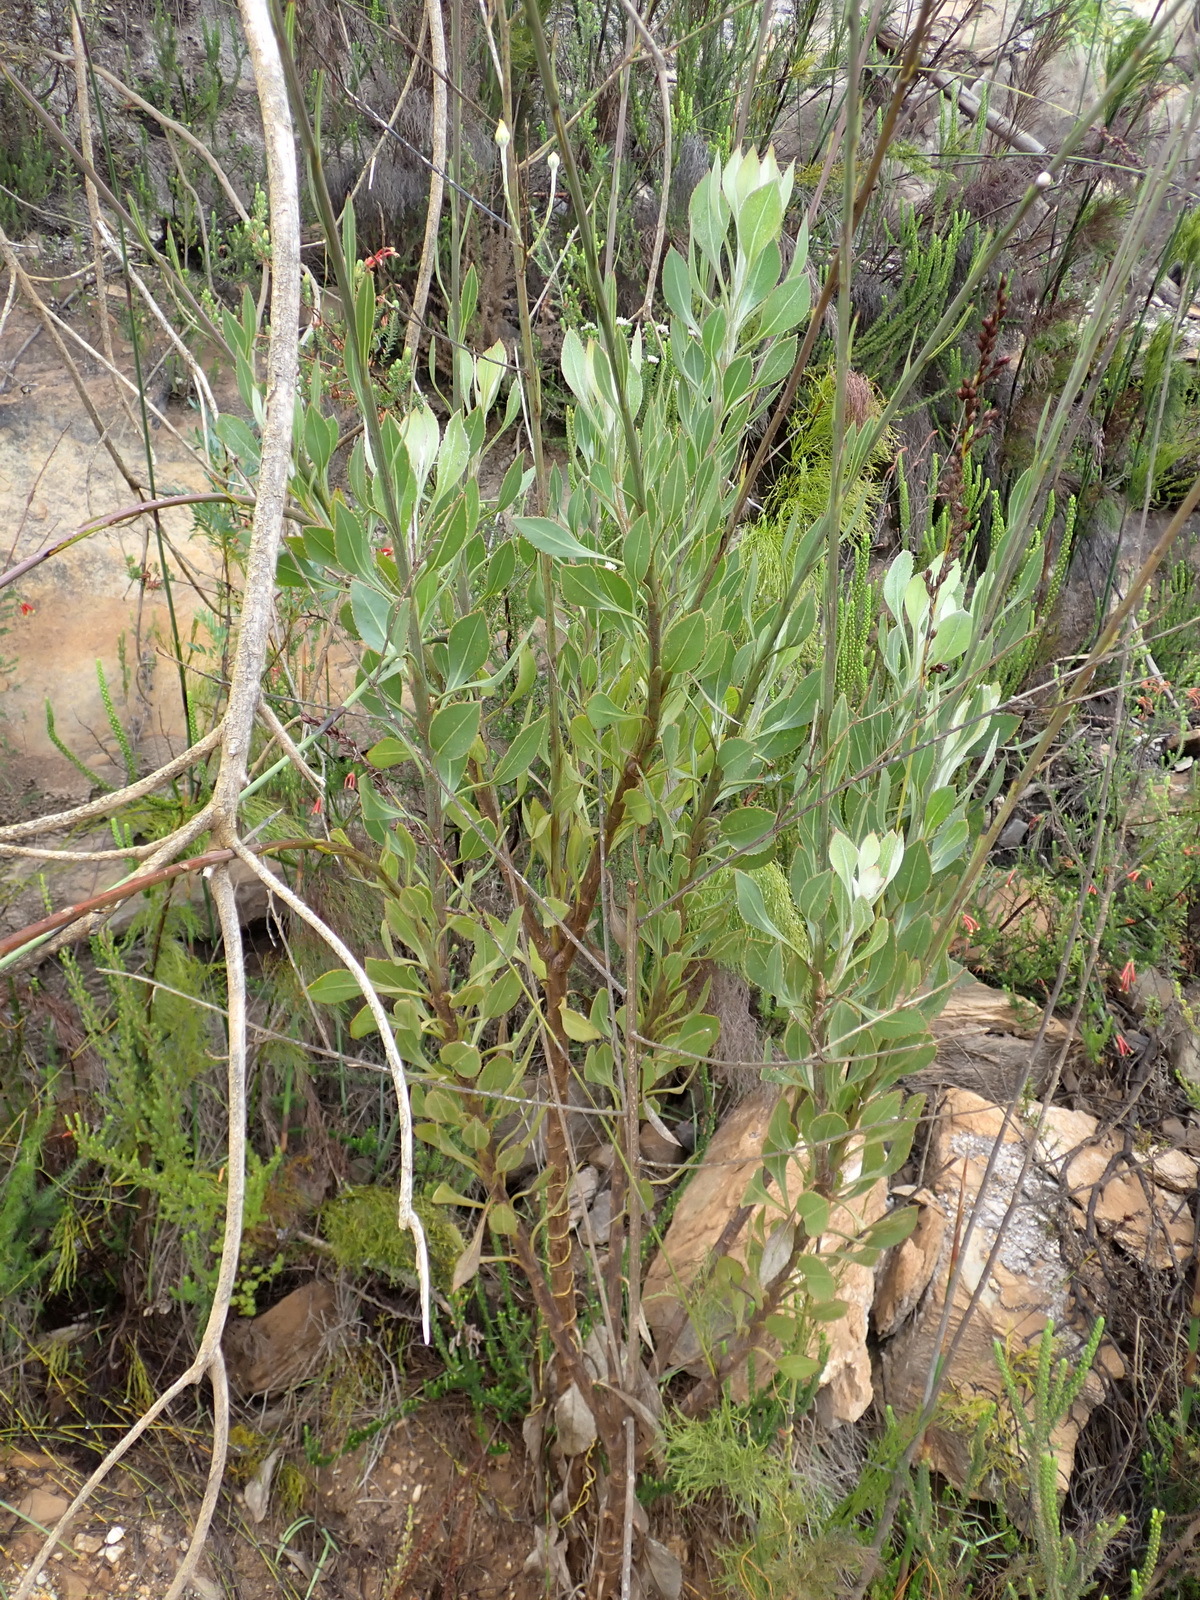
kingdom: Plantae
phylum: Tracheophyta
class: Magnoliopsida
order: Asterales
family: Asteraceae
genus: Osteospermum
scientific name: Osteospermum junceum
